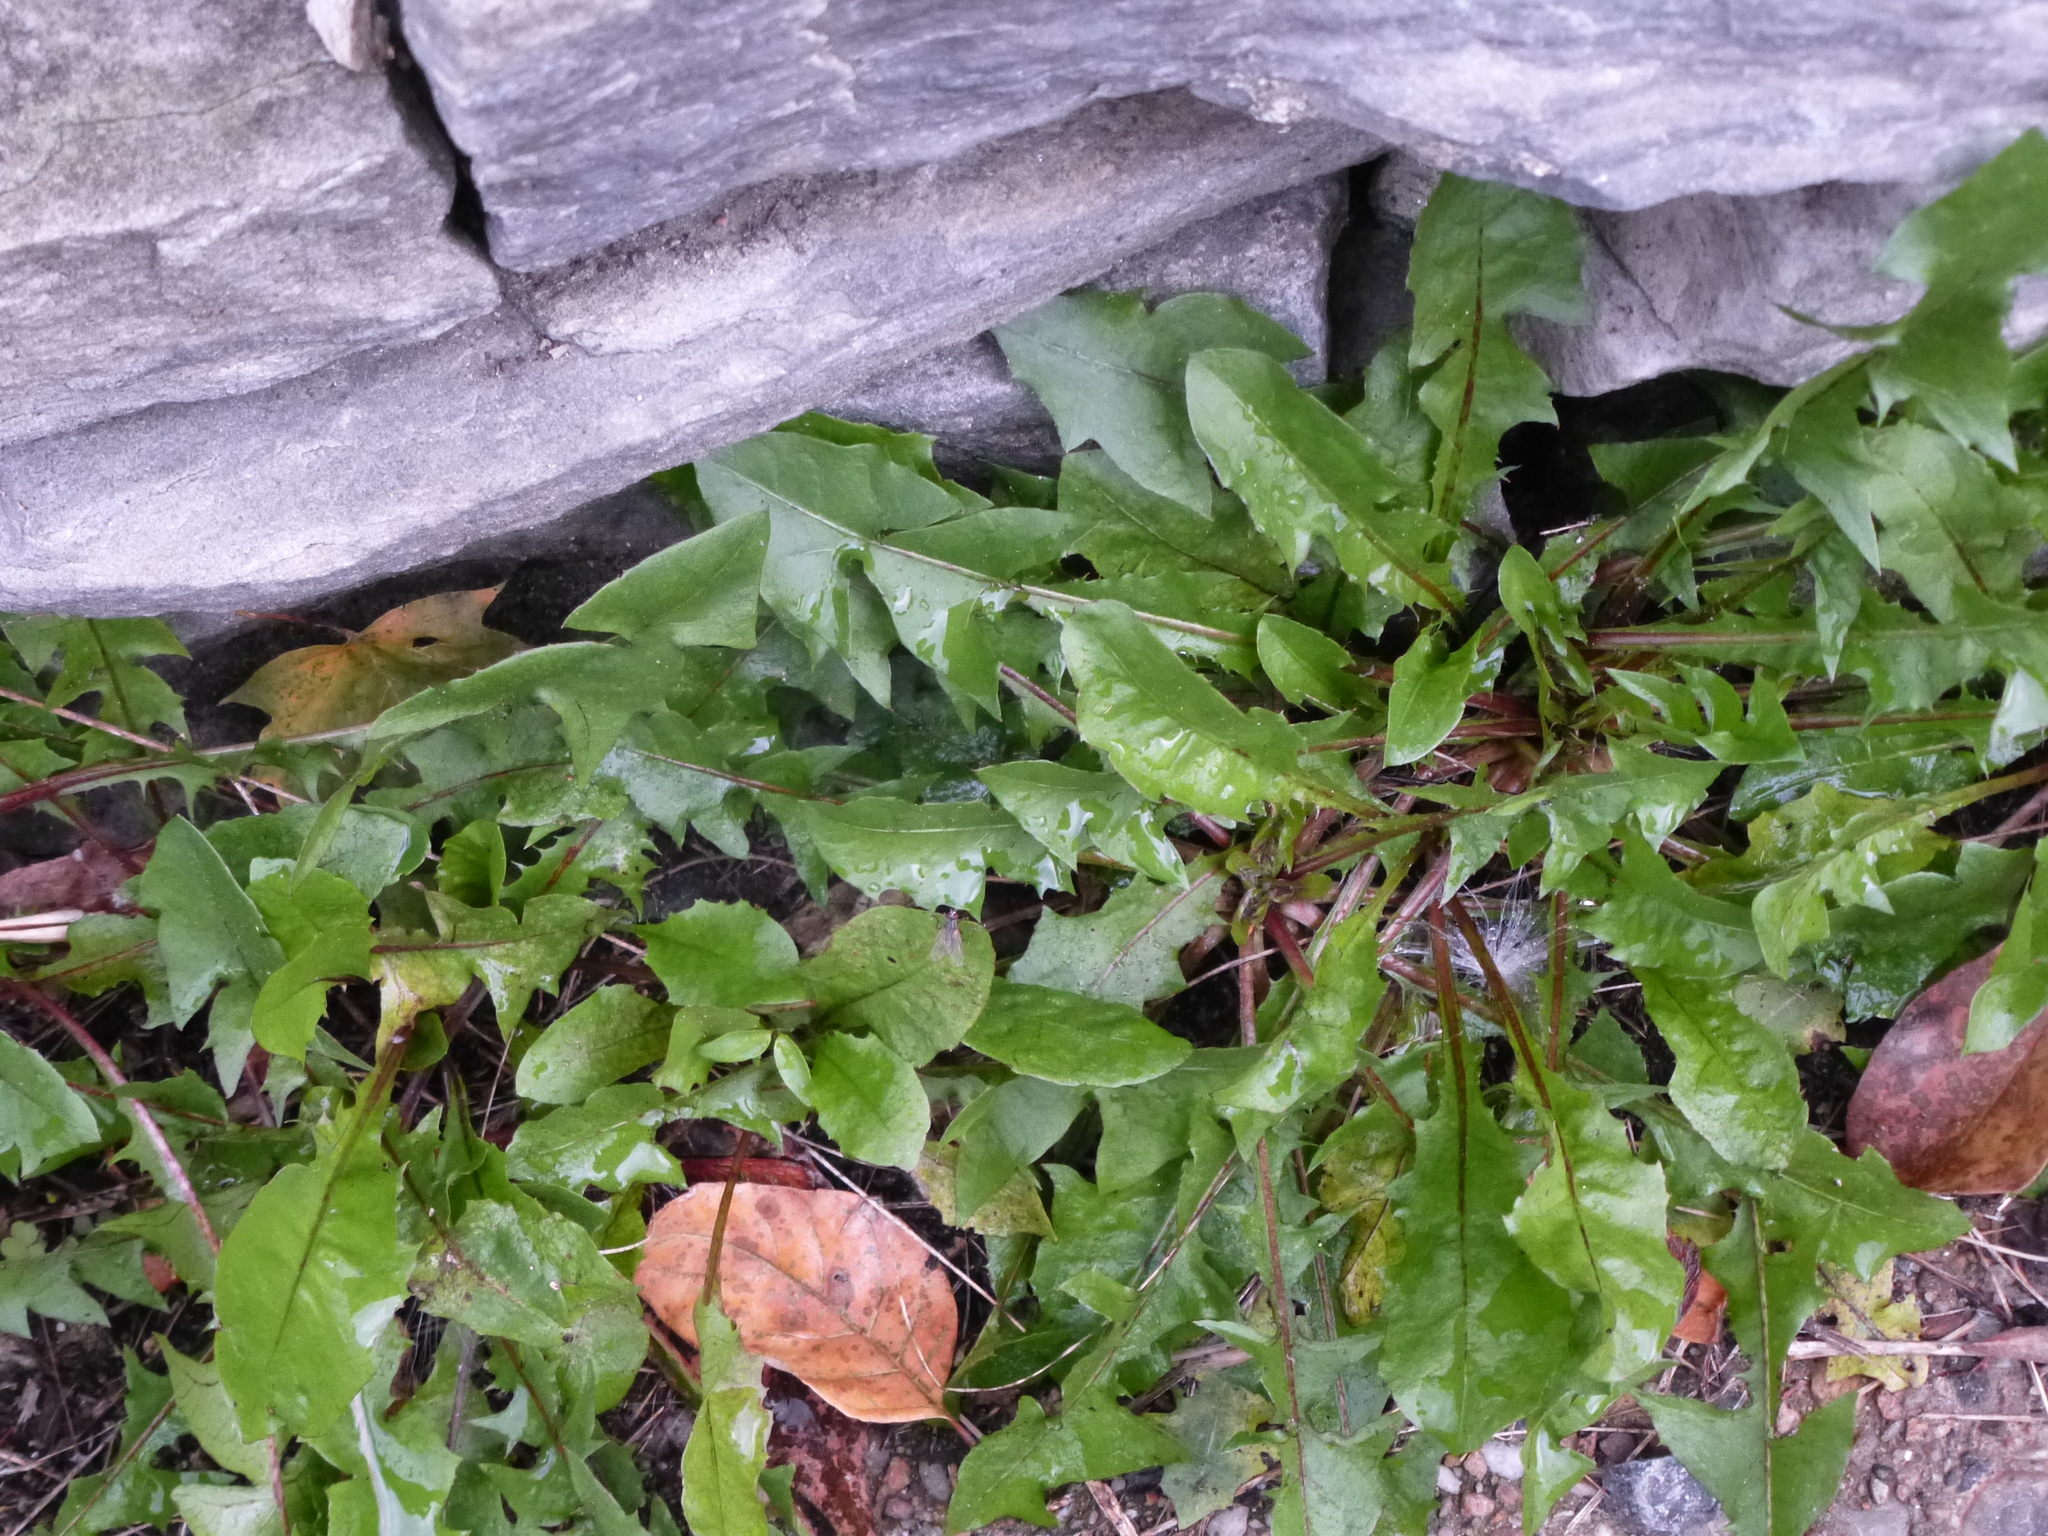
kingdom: Plantae
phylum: Tracheophyta
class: Magnoliopsida
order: Asterales
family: Asteraceae
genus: Taraxacum
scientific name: Taraxacum officinale
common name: Common dandelion
